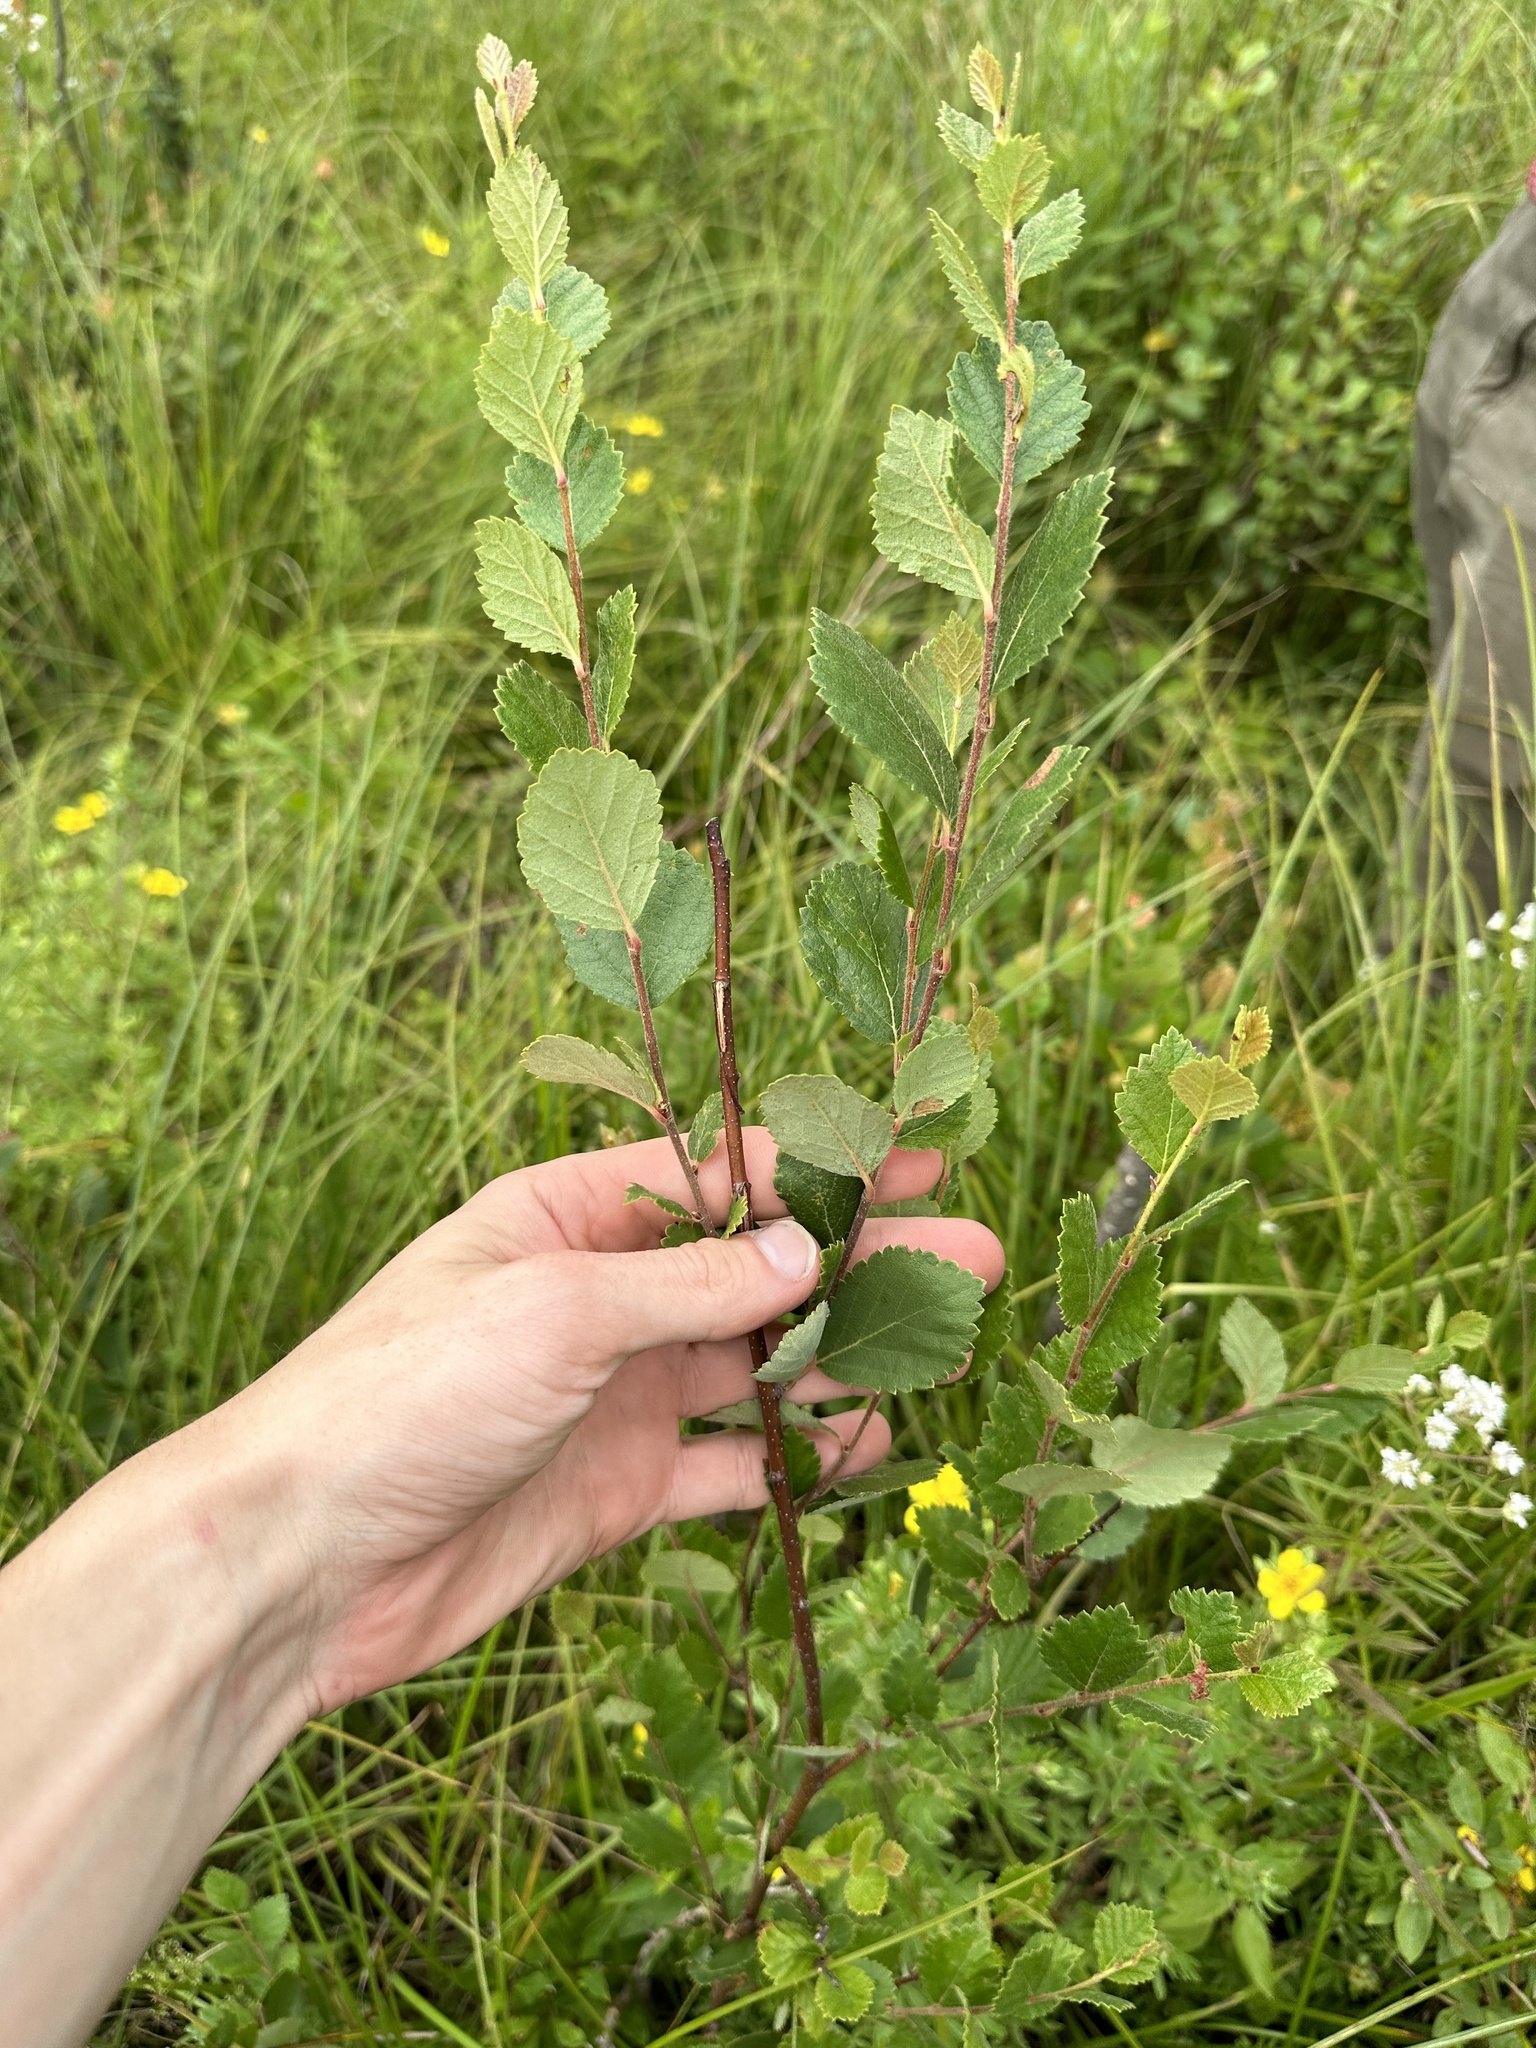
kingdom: Plantae
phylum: Tracheophyta
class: Magnoliopsida
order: Fagales
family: Betulaceae
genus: Betula
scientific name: Betula pumila
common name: Bog birch
